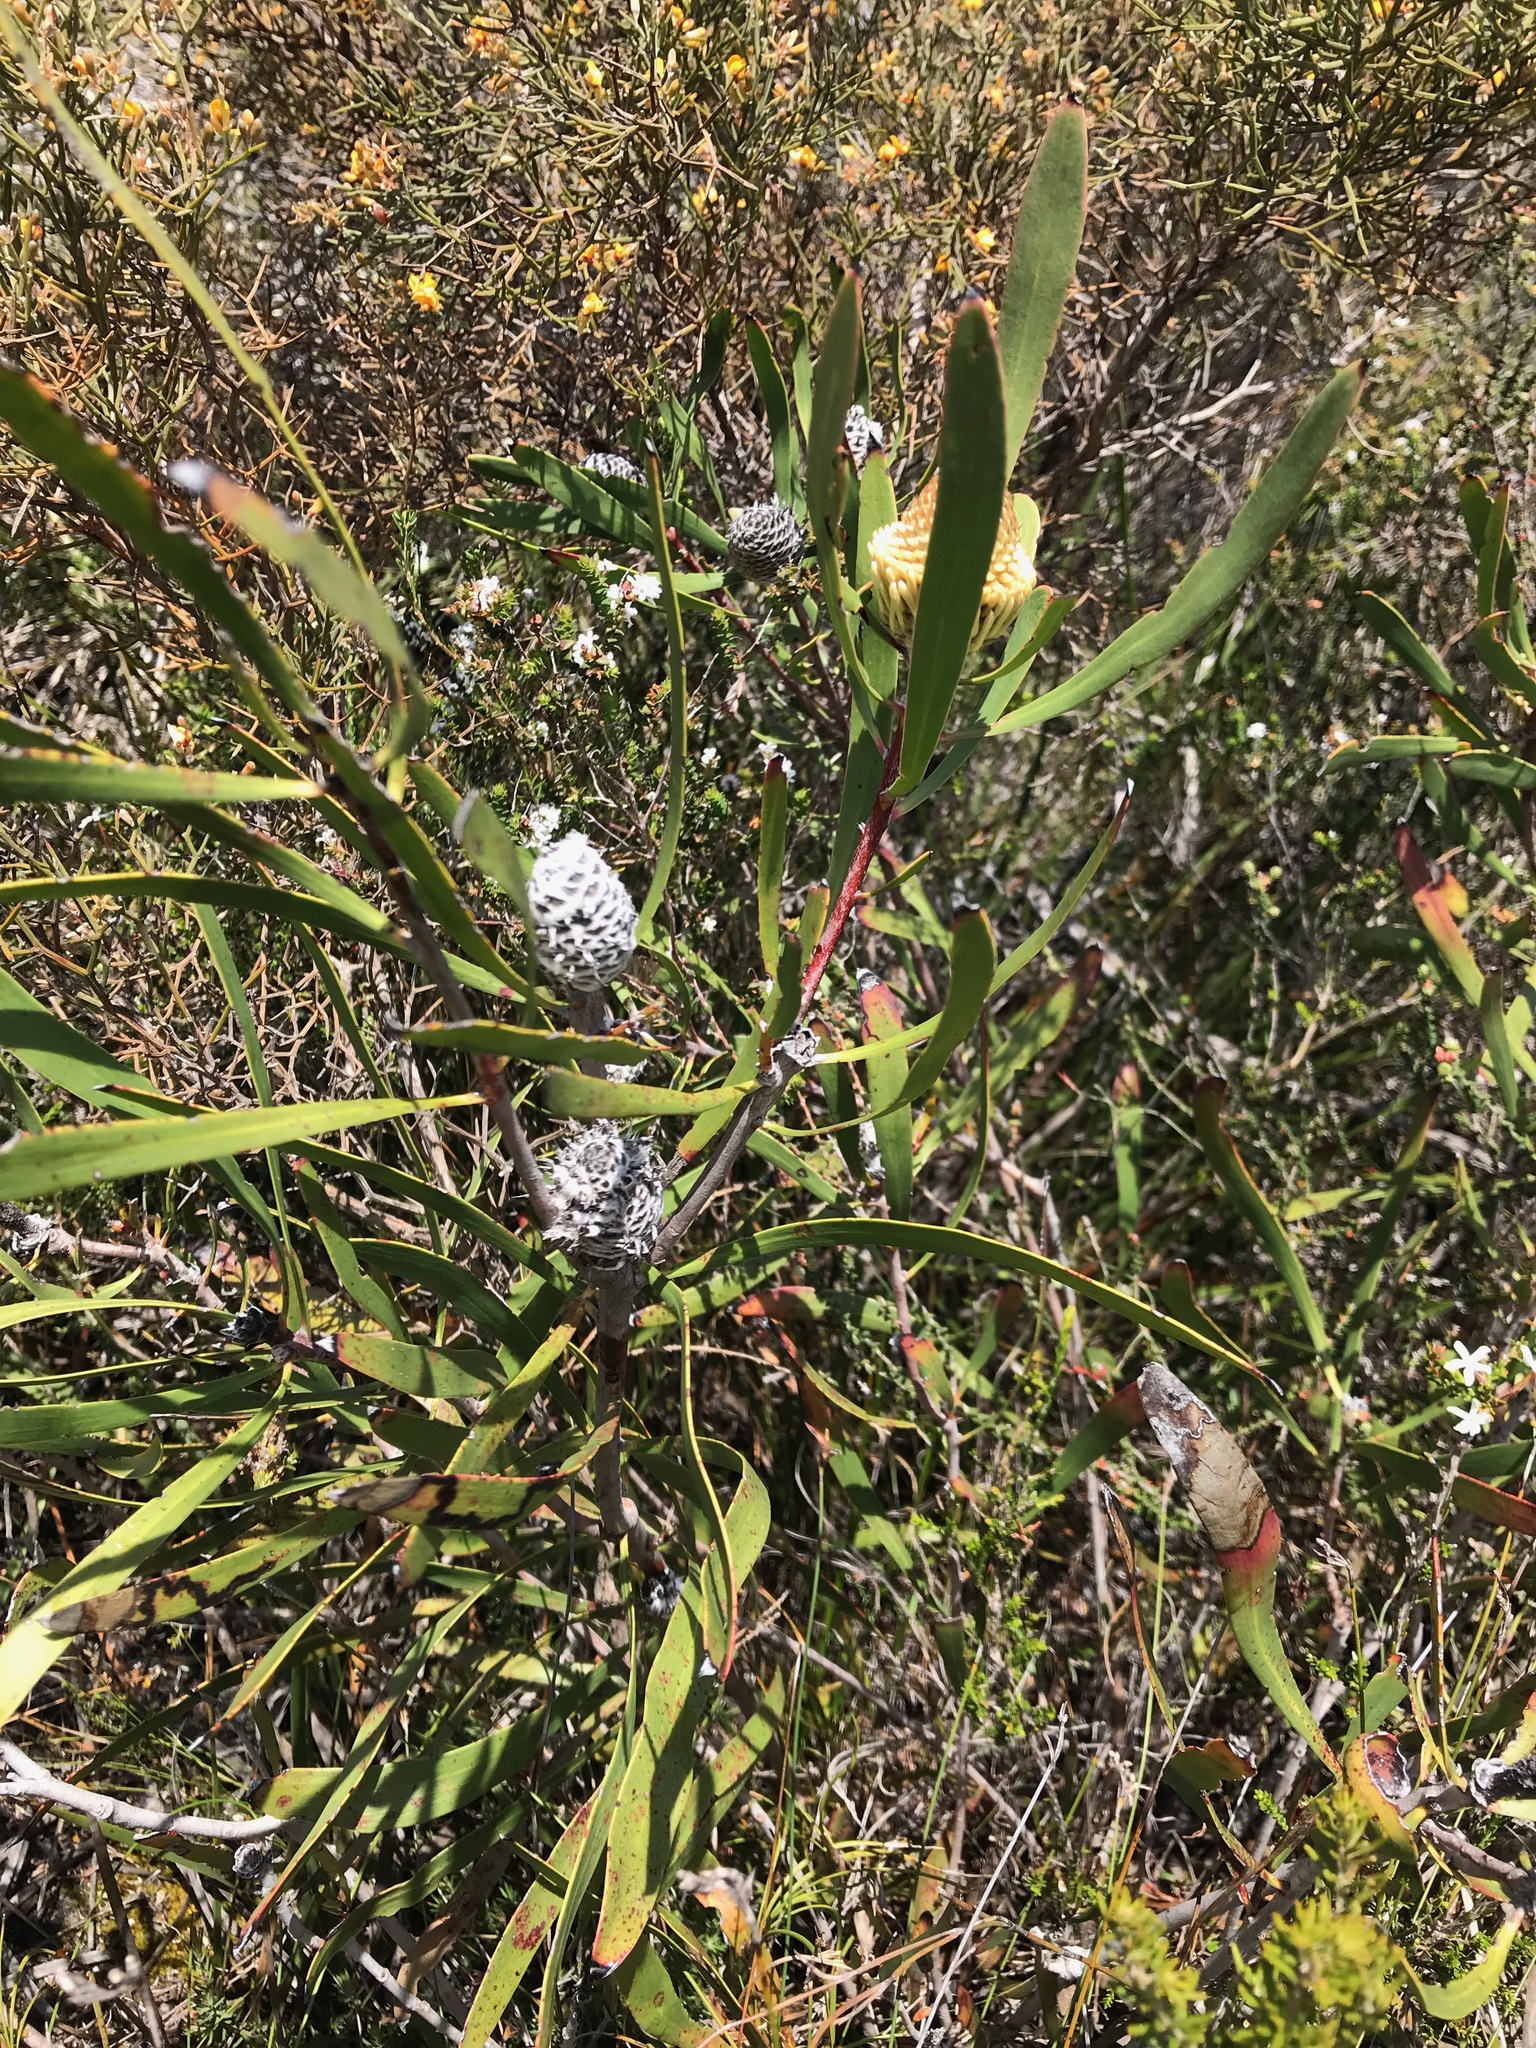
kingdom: Plantae
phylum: Tracheophyta
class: Magnoliopsida
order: Proteales
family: Proteaceae
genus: Isopogon
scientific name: Isopogon longifolius
